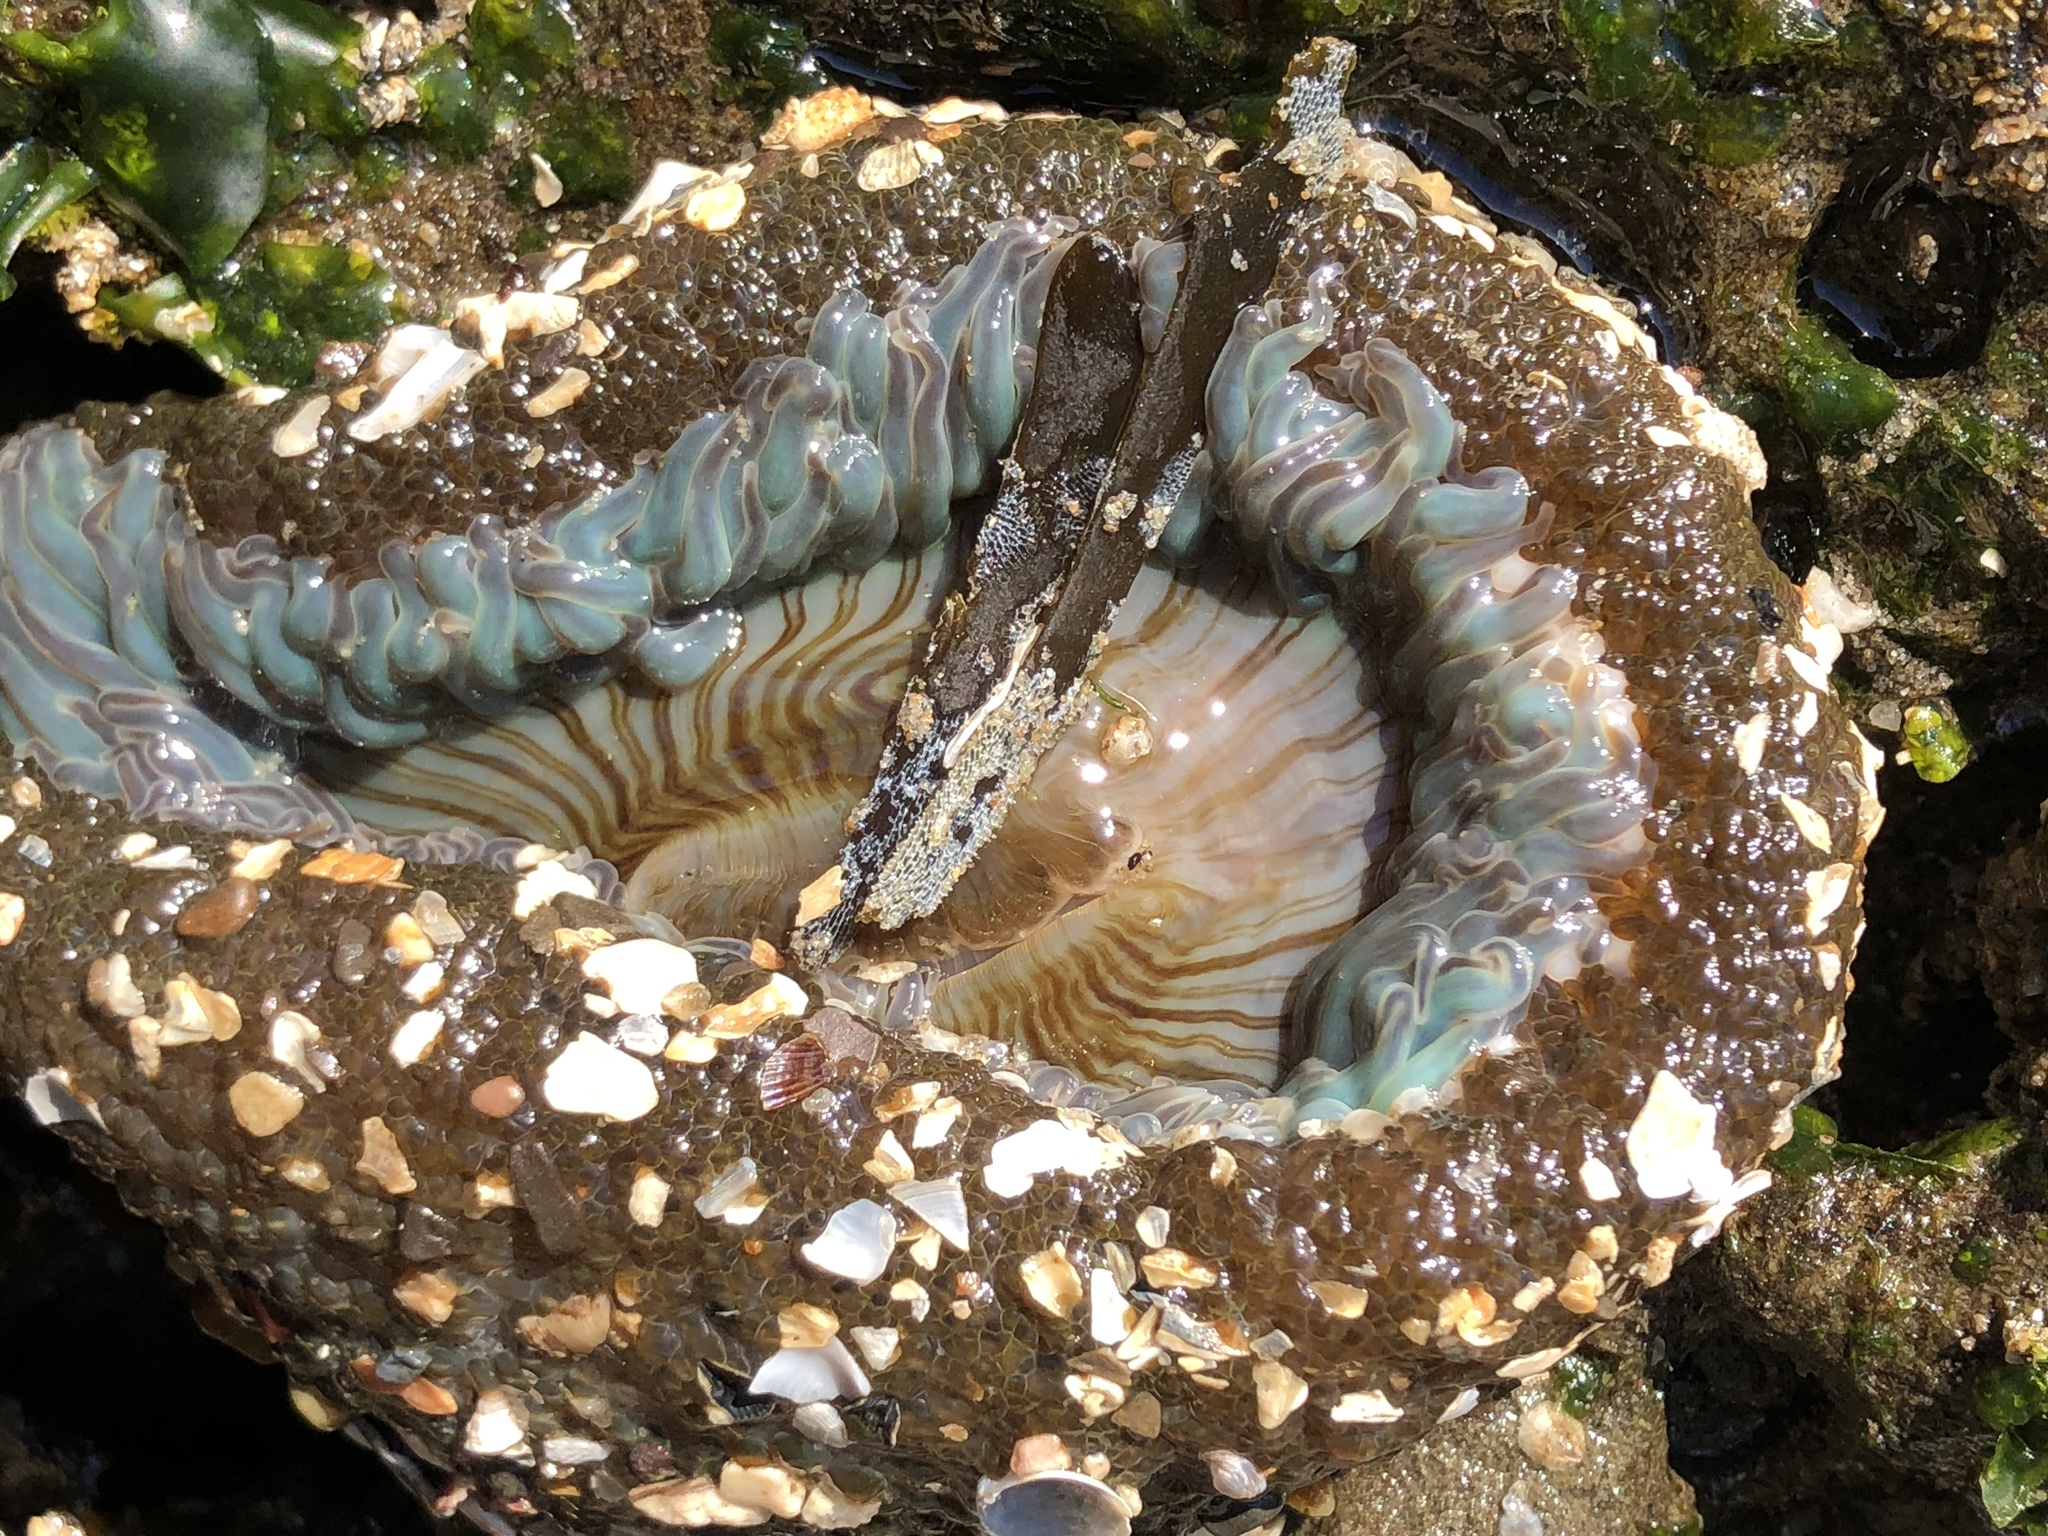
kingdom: Animalia
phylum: Cnidaria
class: Anthozoa
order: Actiniaria
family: Actiniidae
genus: Anthopleura
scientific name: Anthopleura sola
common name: Sun anemone
